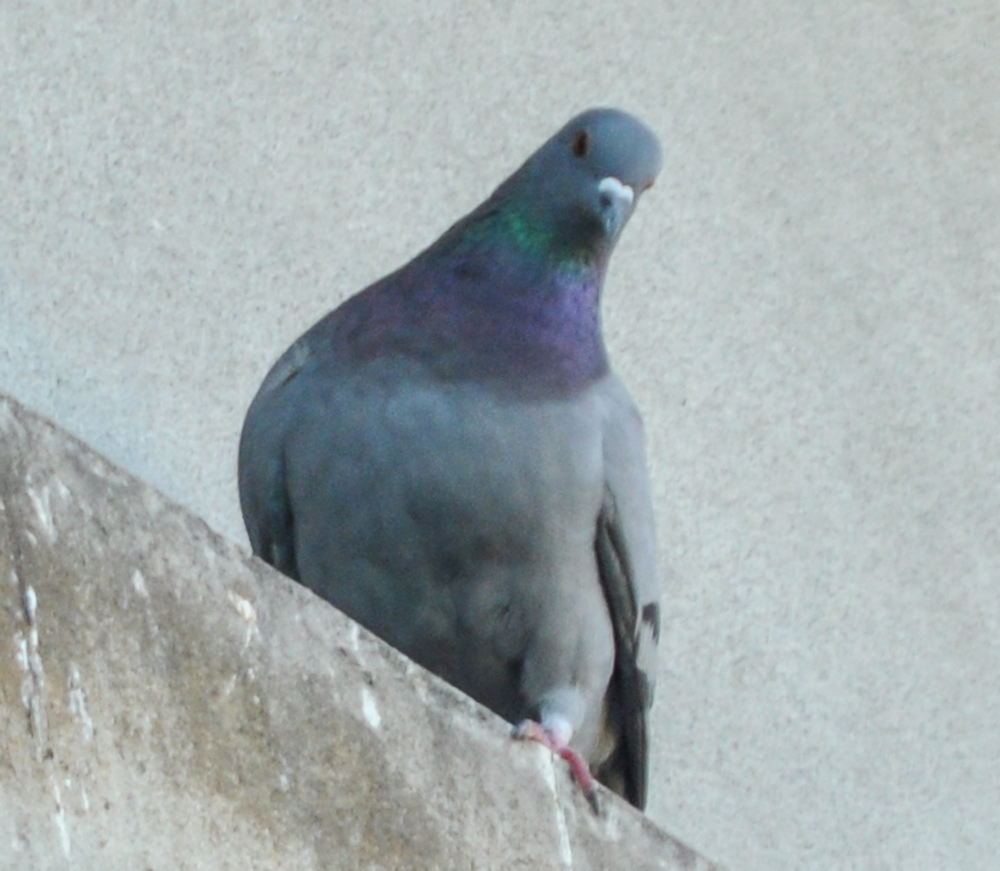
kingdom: Animalia
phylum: Chordata
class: Aves
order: Columbiformes
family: Columbidae
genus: Columba
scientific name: Columba livia
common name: Rock pigeon
